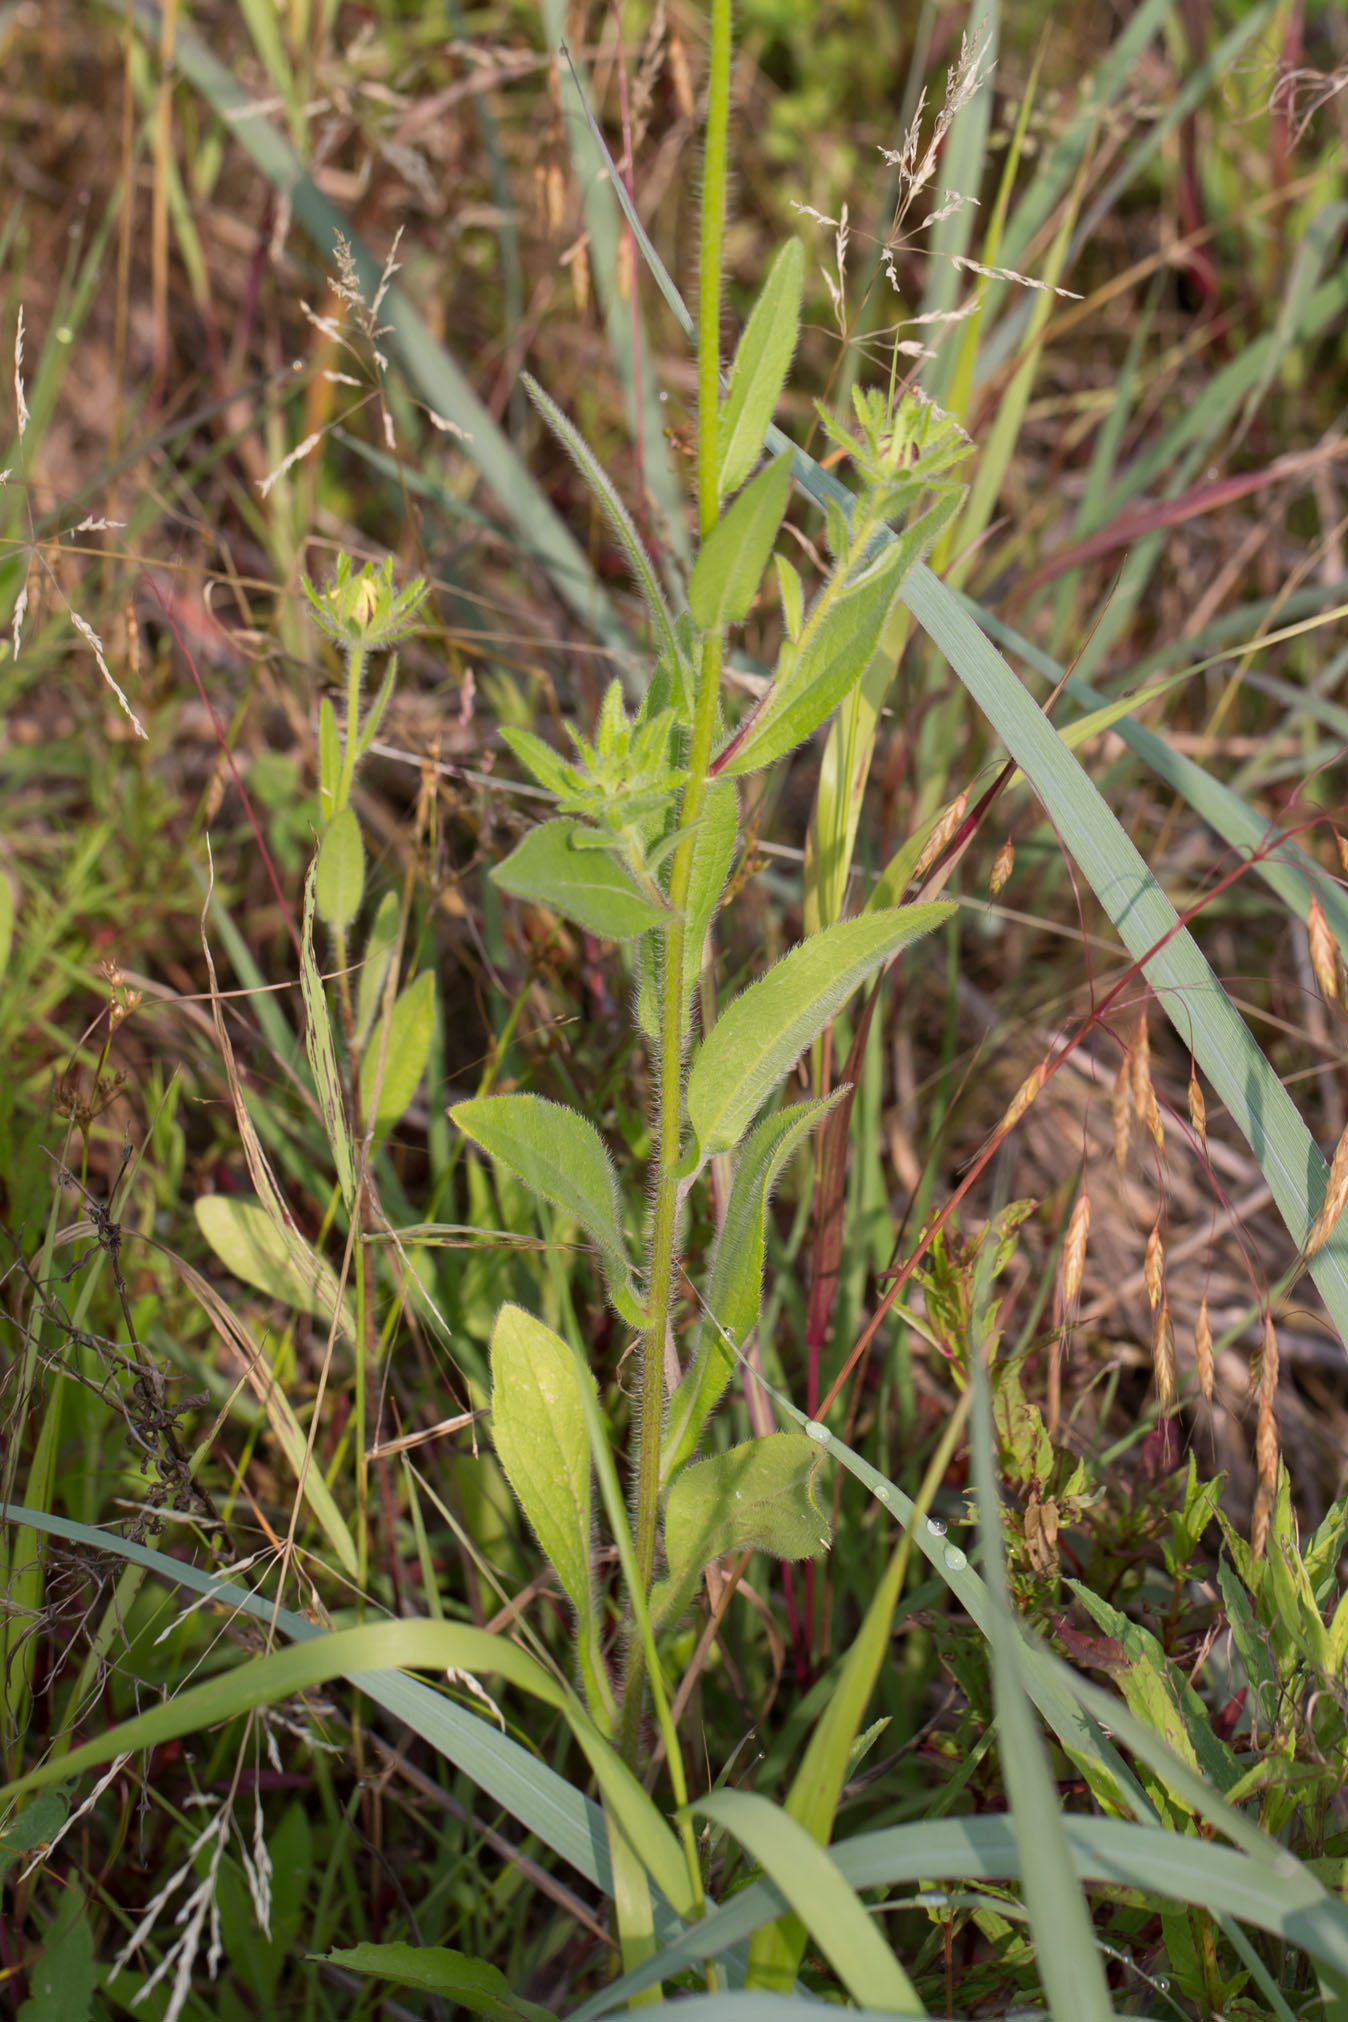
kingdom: Plantae
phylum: Tracheophyta
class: Magnoliopsida
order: Asterales
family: Asteraceae
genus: Rudbeckia
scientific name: Rudbeckia hirta
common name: Black-eyed-susan
